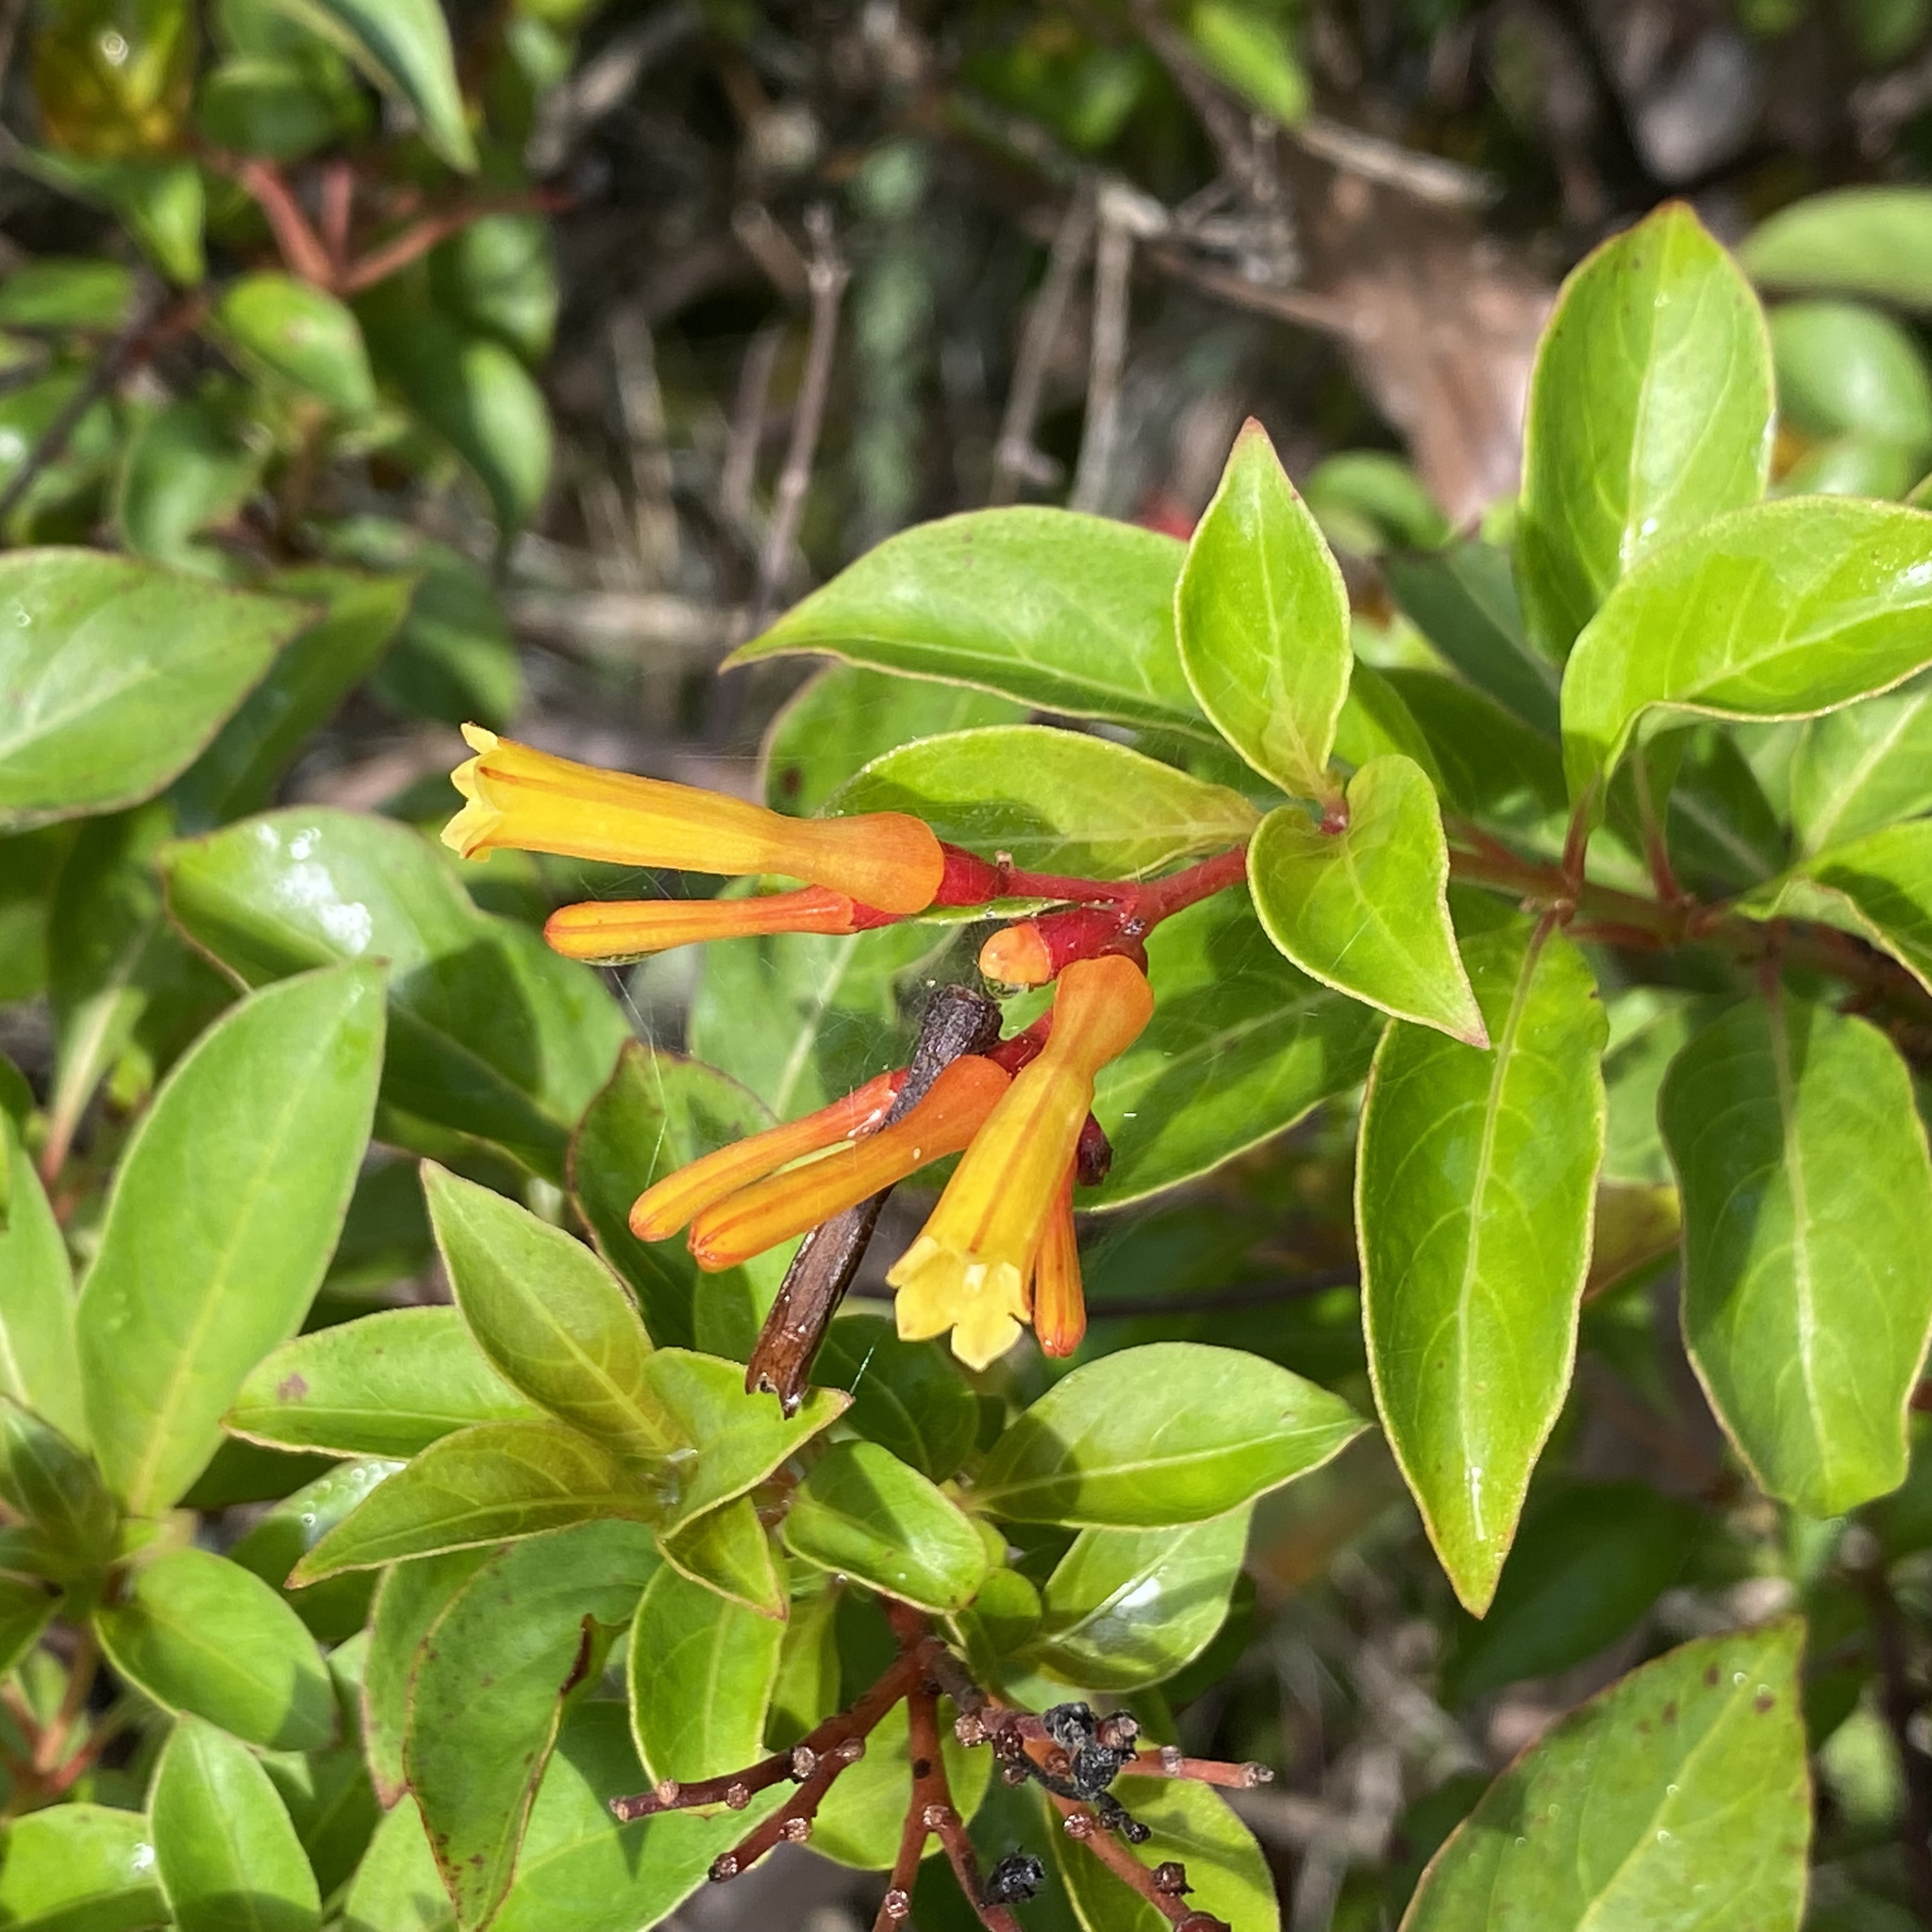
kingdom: Plantae
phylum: Tracheophyta
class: Magnoliopsida
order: Gentianales
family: Rubiaceae
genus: Hamelia
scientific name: Hamelia patens
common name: Redhead
